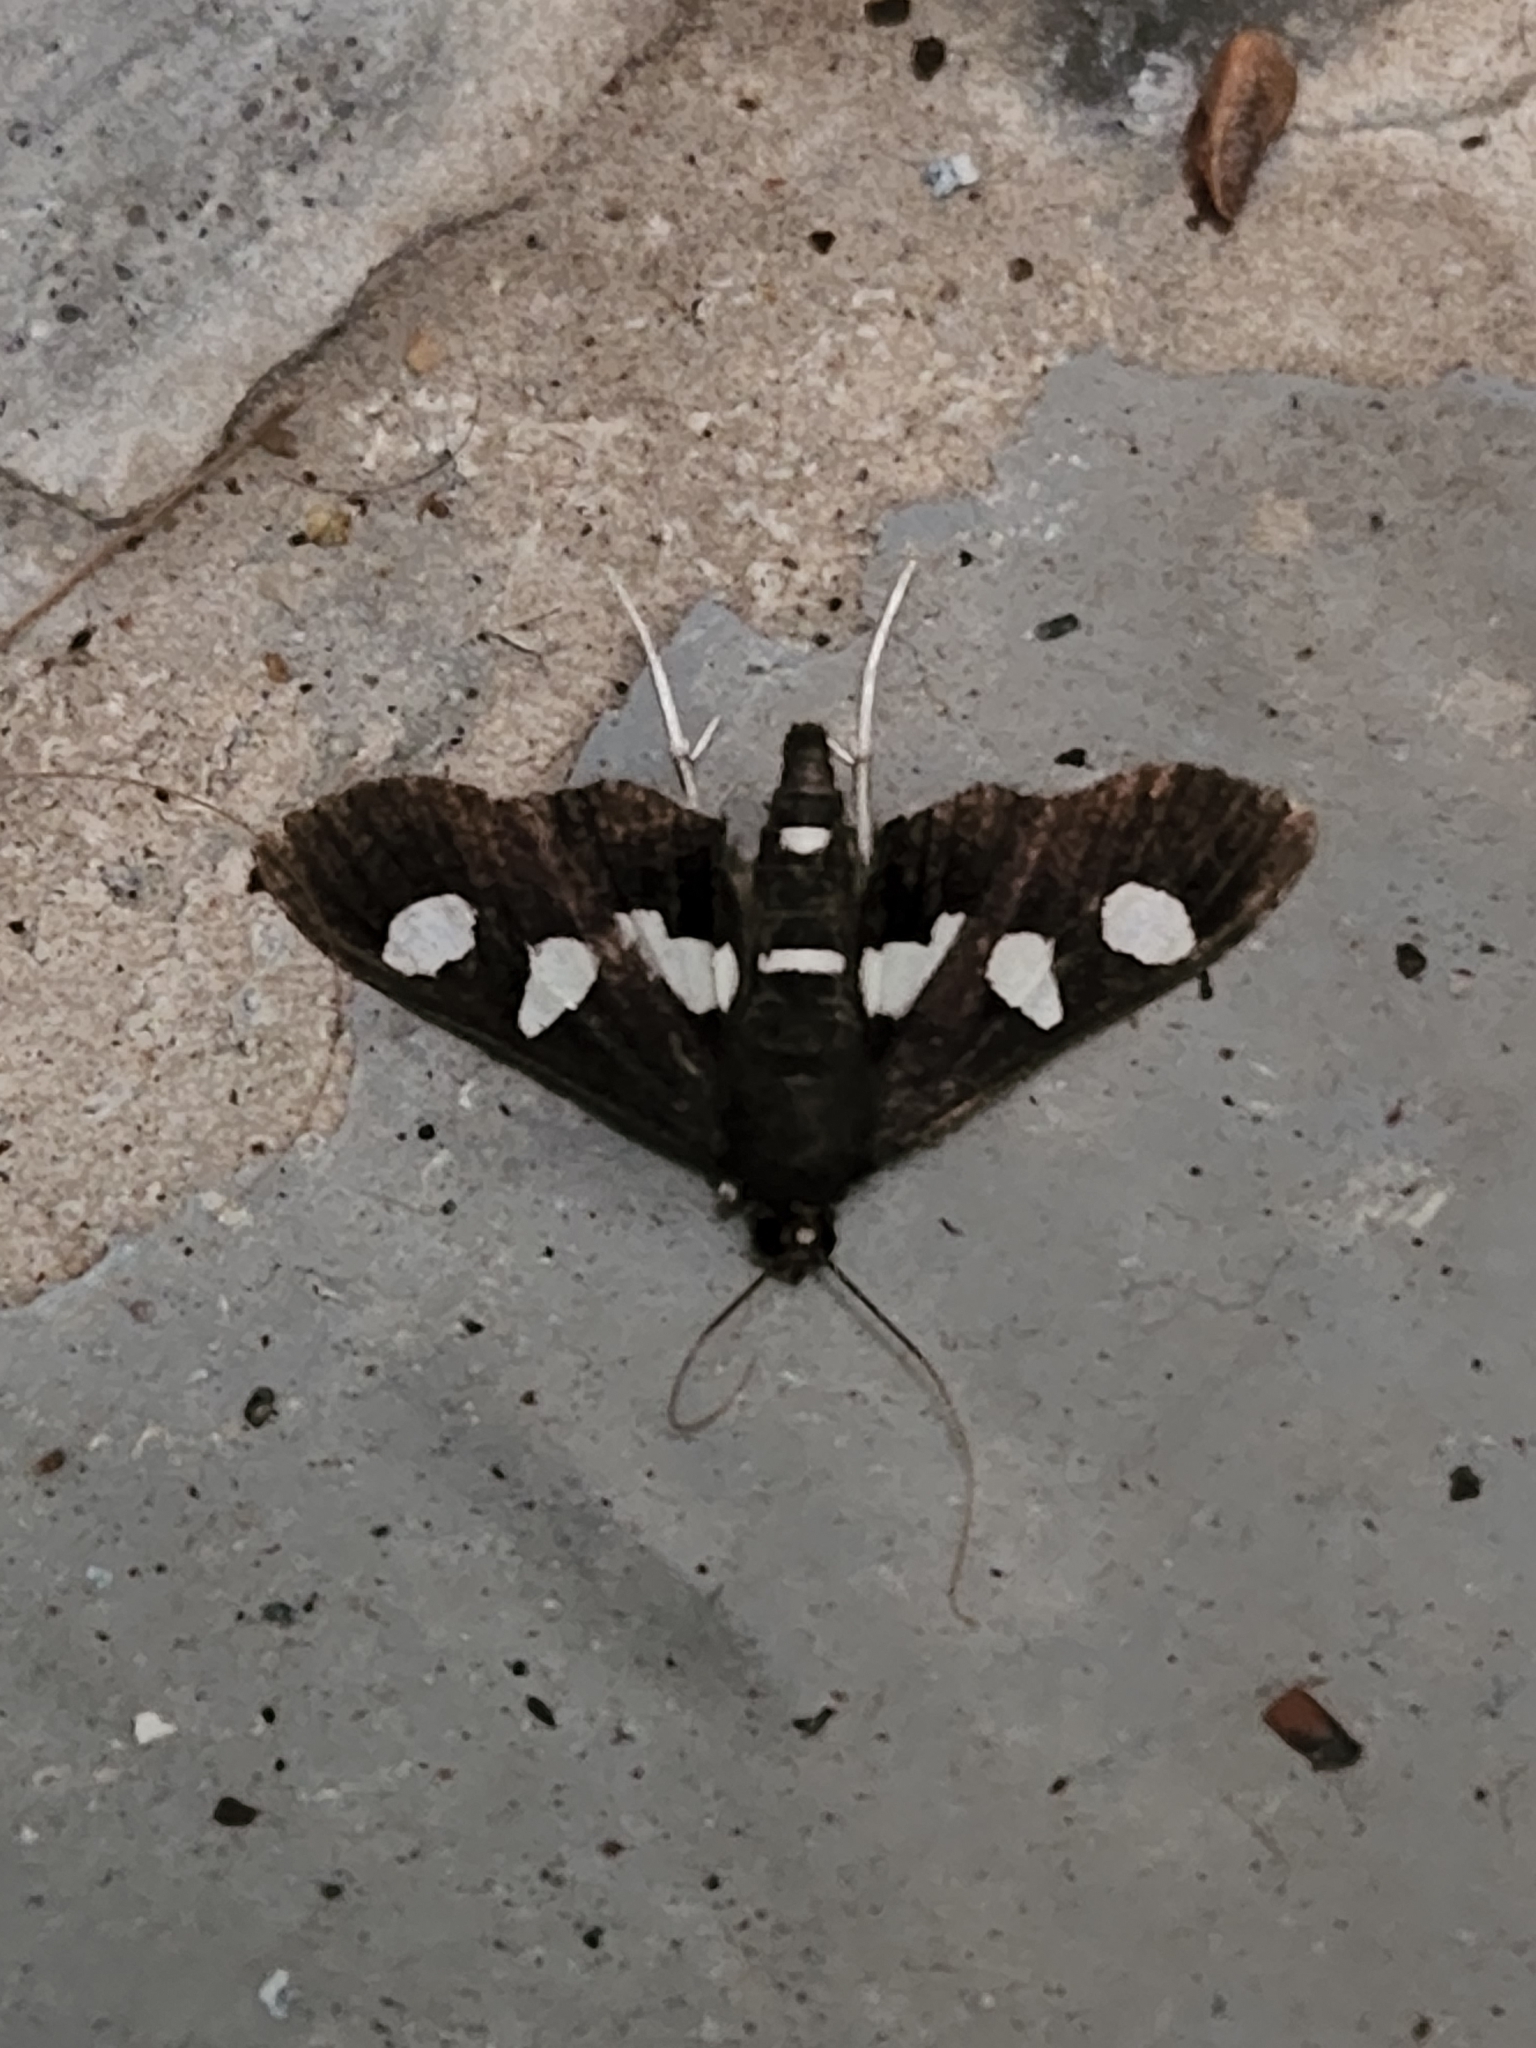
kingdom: Animalia
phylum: Arthropoda
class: Insecta
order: Lepidoptera
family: Crambidae
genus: Desmia
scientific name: Desmia
